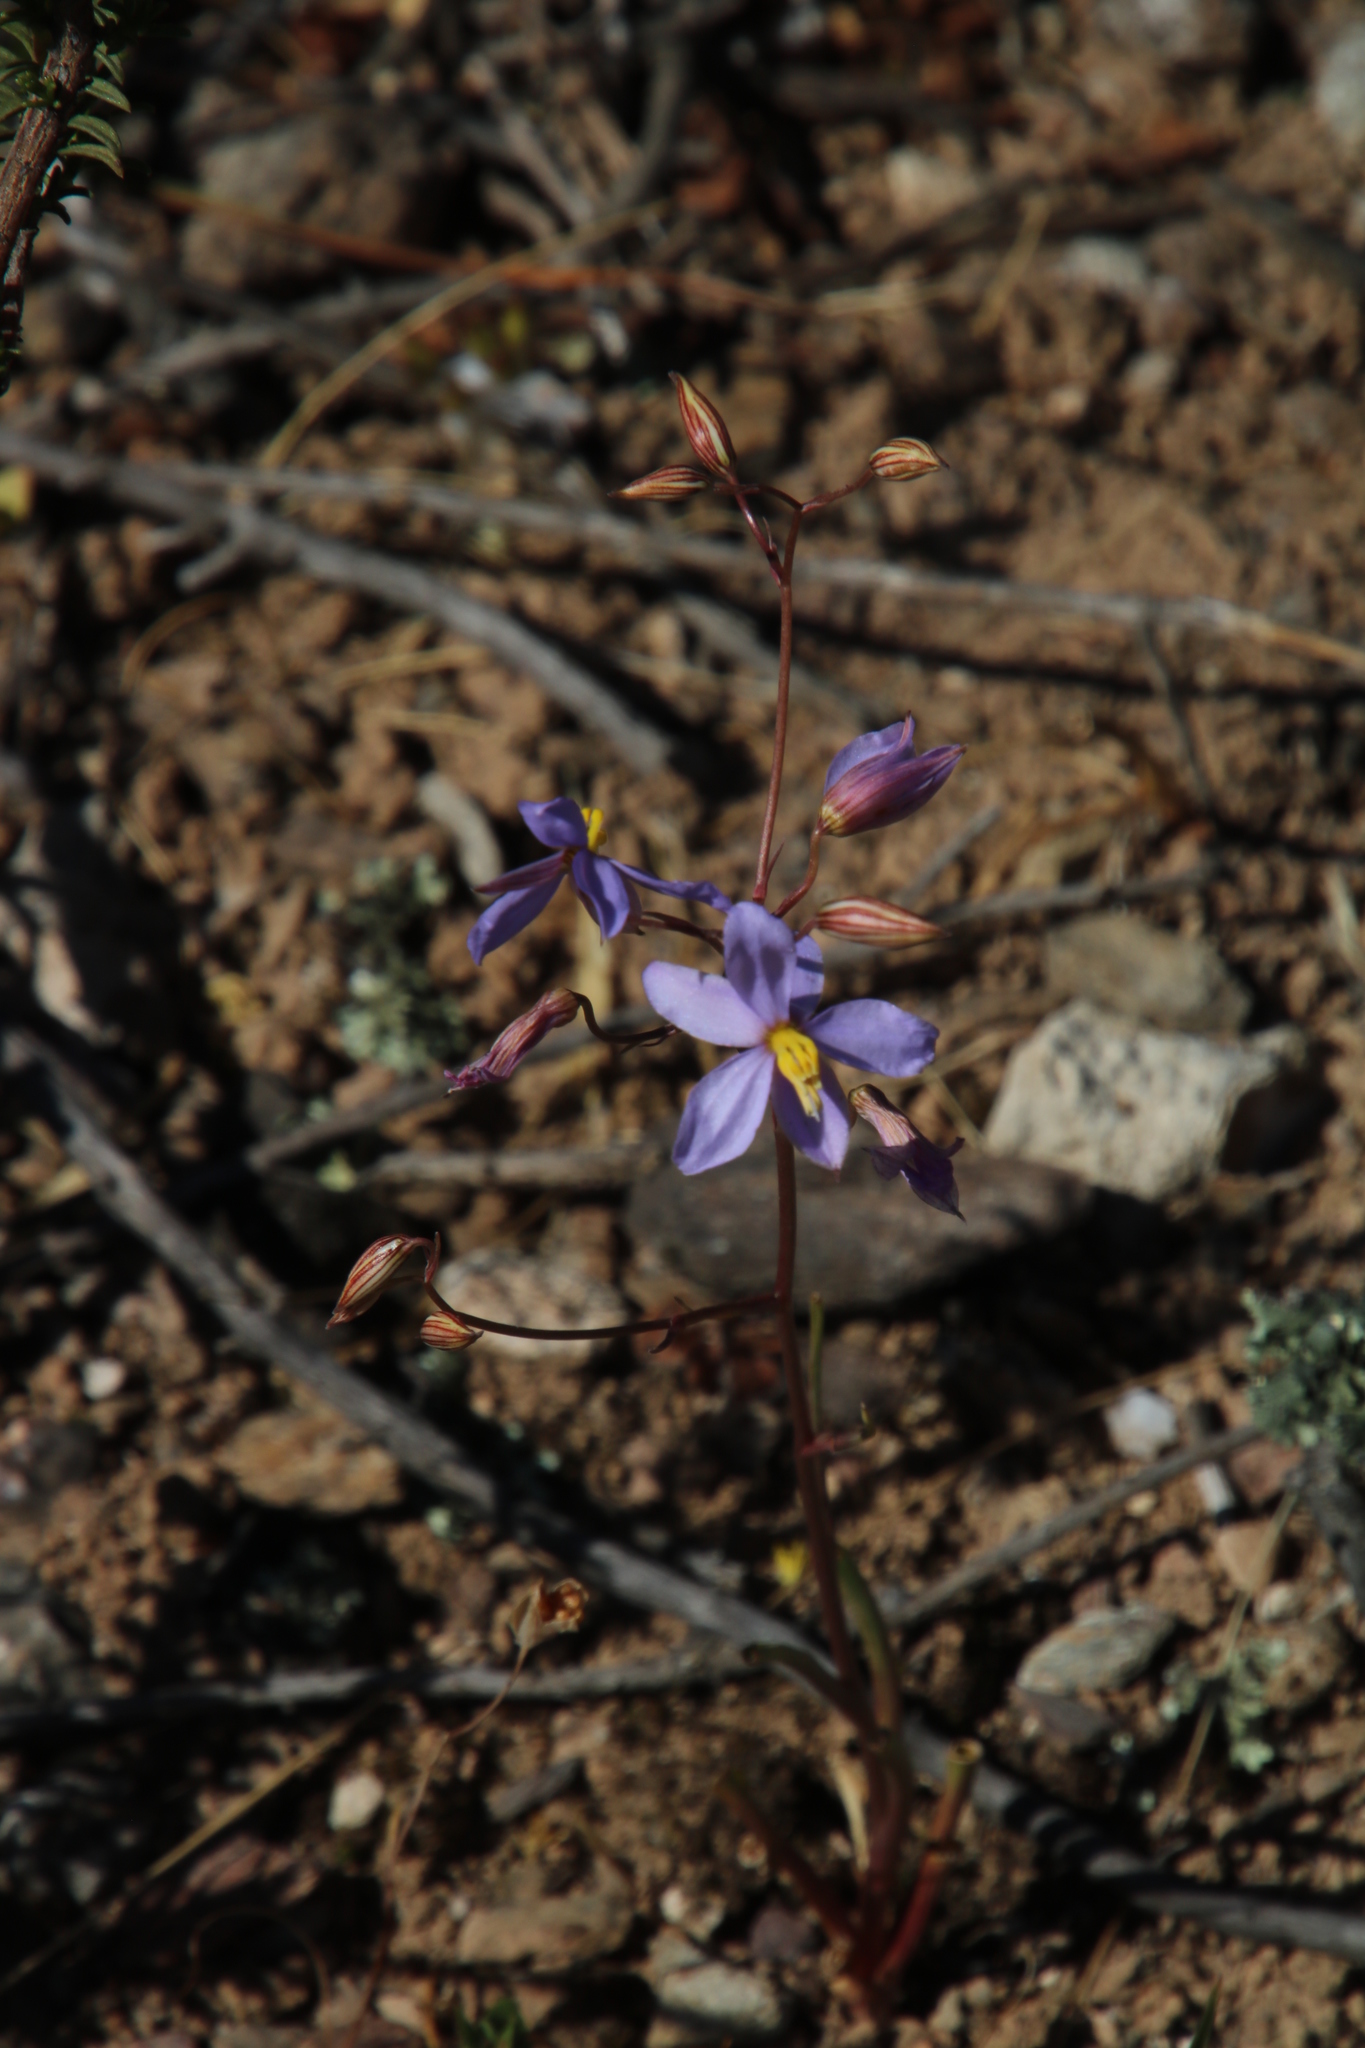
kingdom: Plantae
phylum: Tracheophyta
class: Liliopsida
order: Asparagales
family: Tecophilaeaceae
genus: Cyanella
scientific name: Cyanella hyacinthoides
